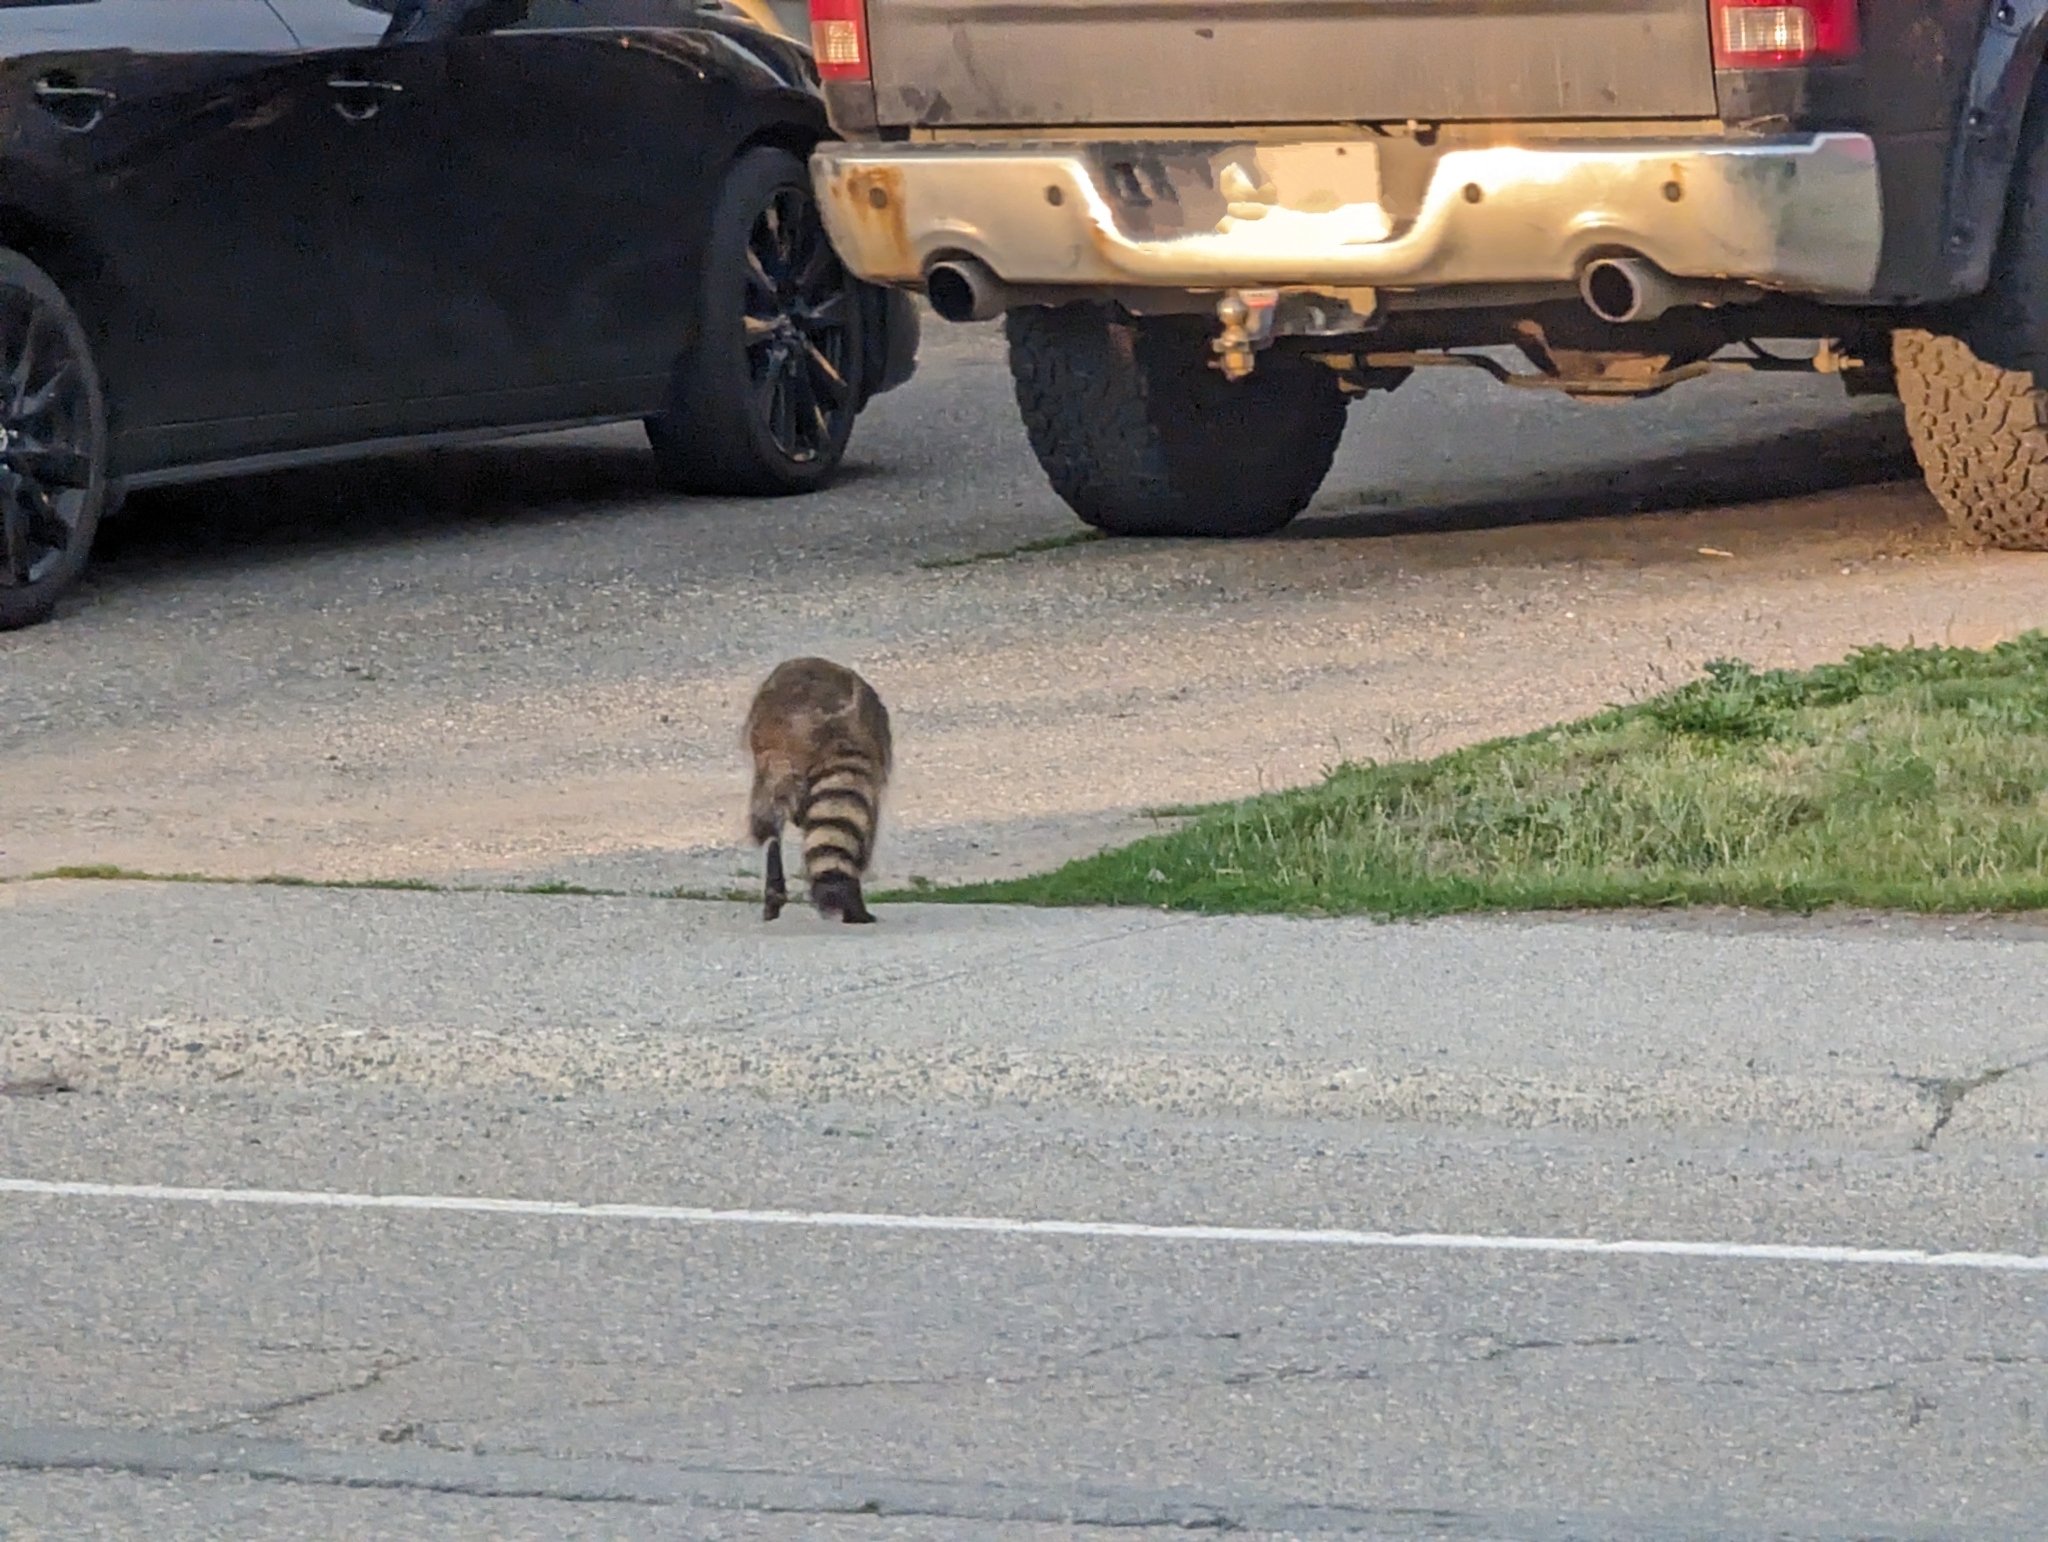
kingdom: Animalia
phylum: Chordata
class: Mammalia
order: Carnivora
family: Procyonidae
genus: Procyon
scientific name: Procyon lotor
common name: Raccoon
